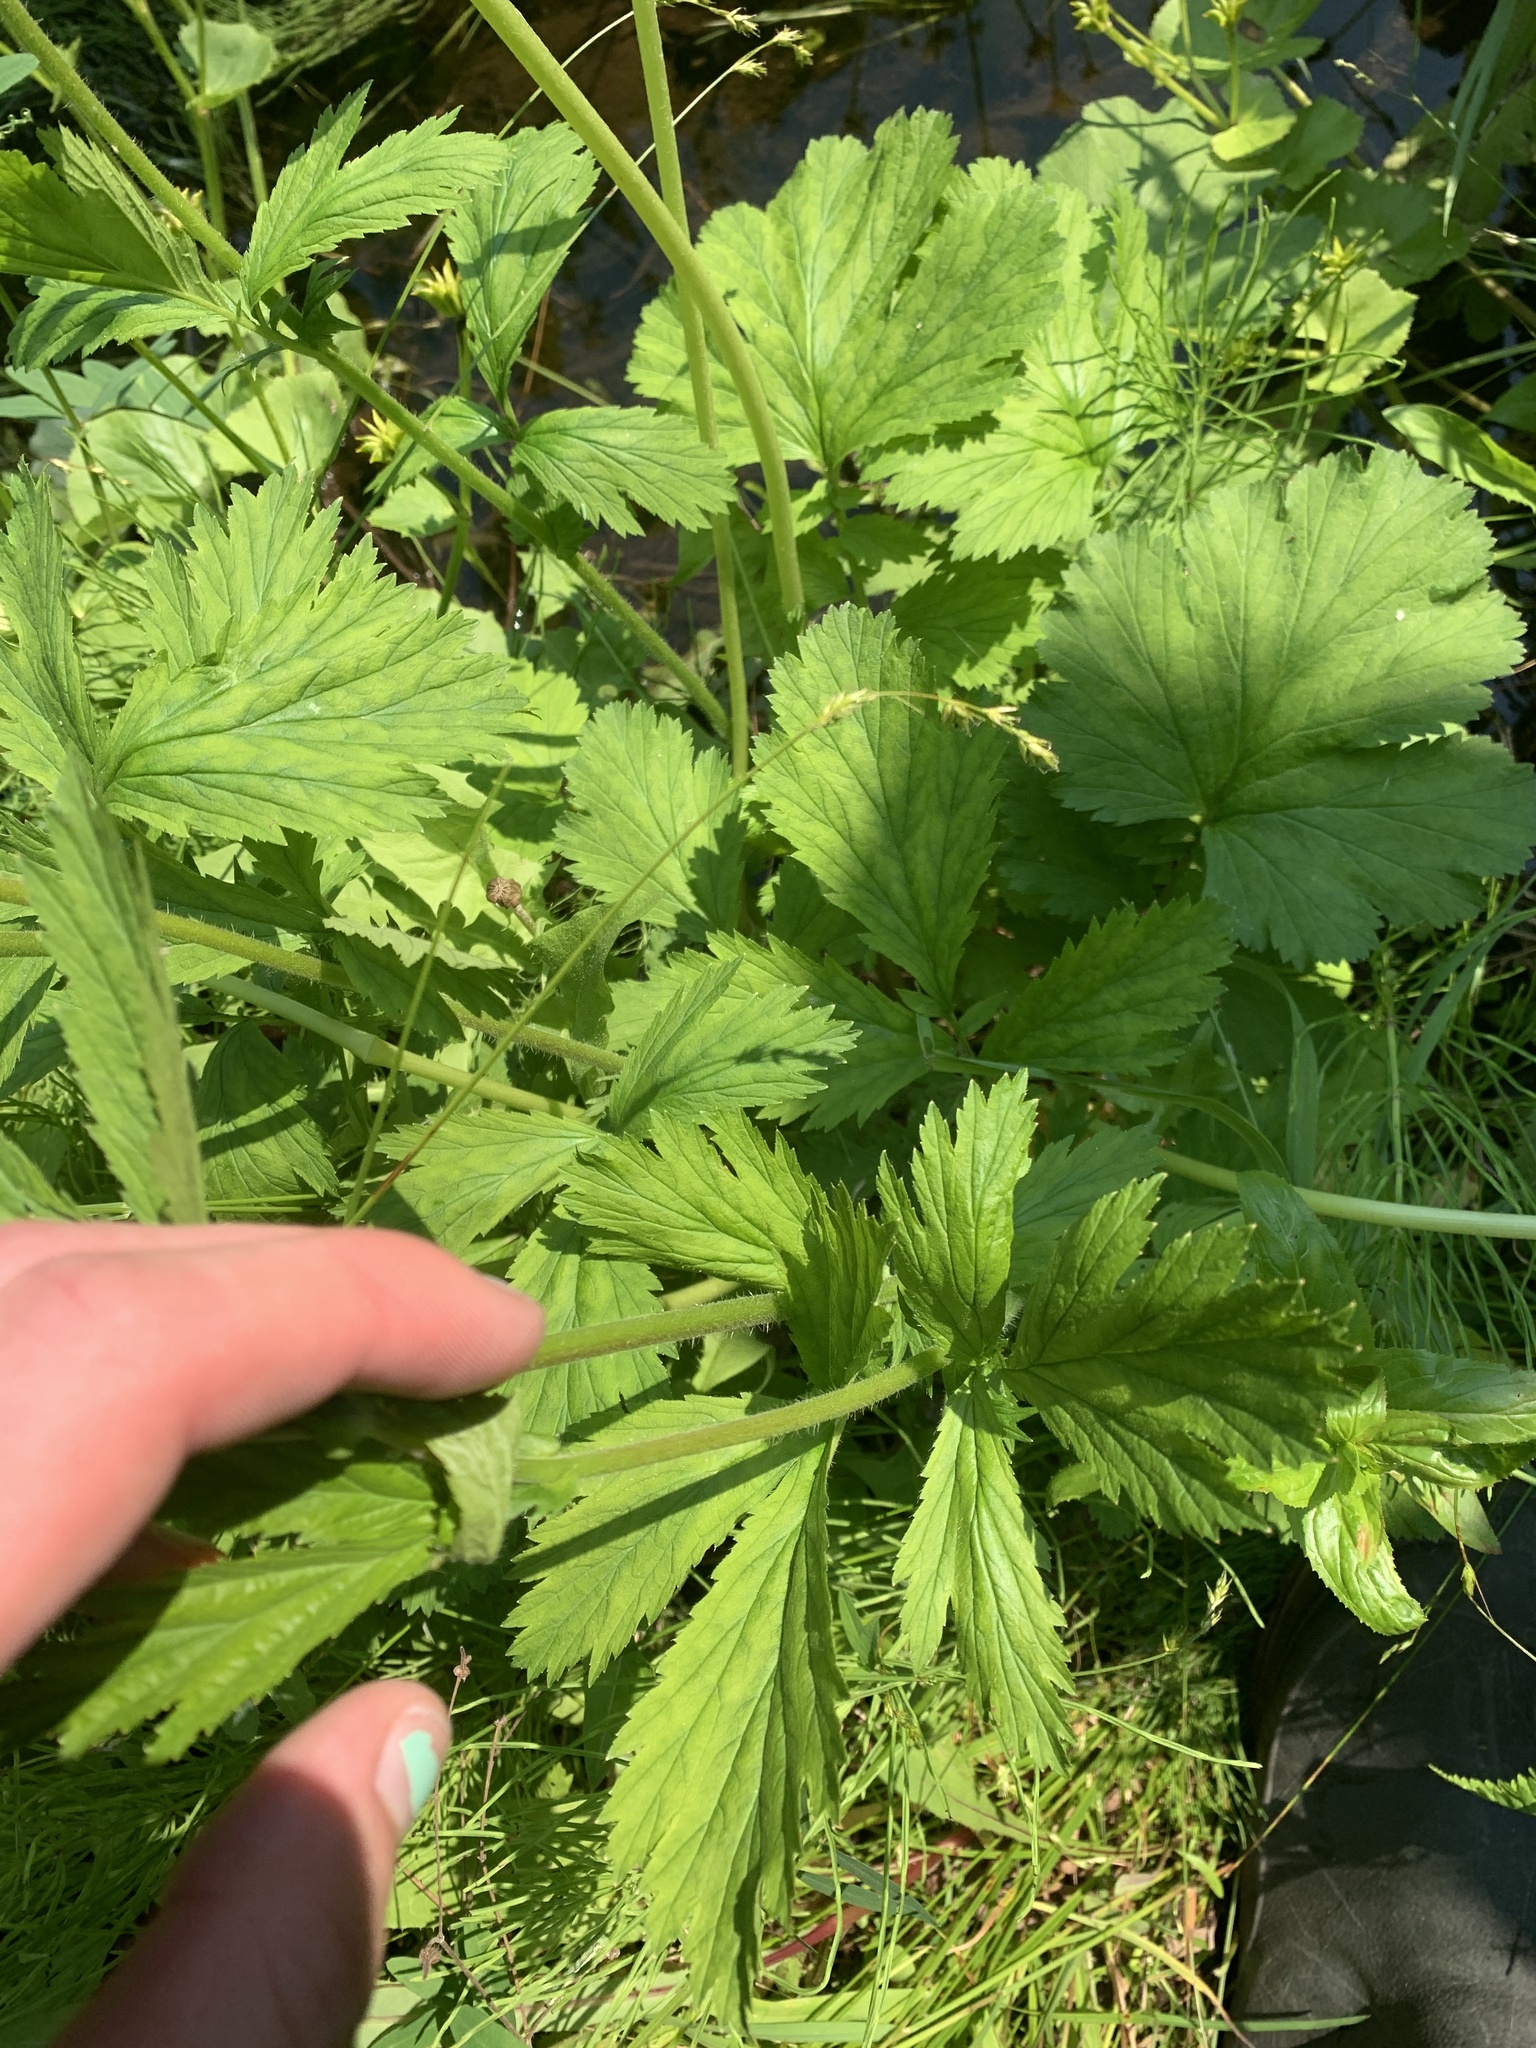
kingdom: Plantae
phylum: Tracheophyta
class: Magnoliopsida
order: Rosales
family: Rosaceae
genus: Geum
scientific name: Geum macrophyllum
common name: Large-leaved avens
